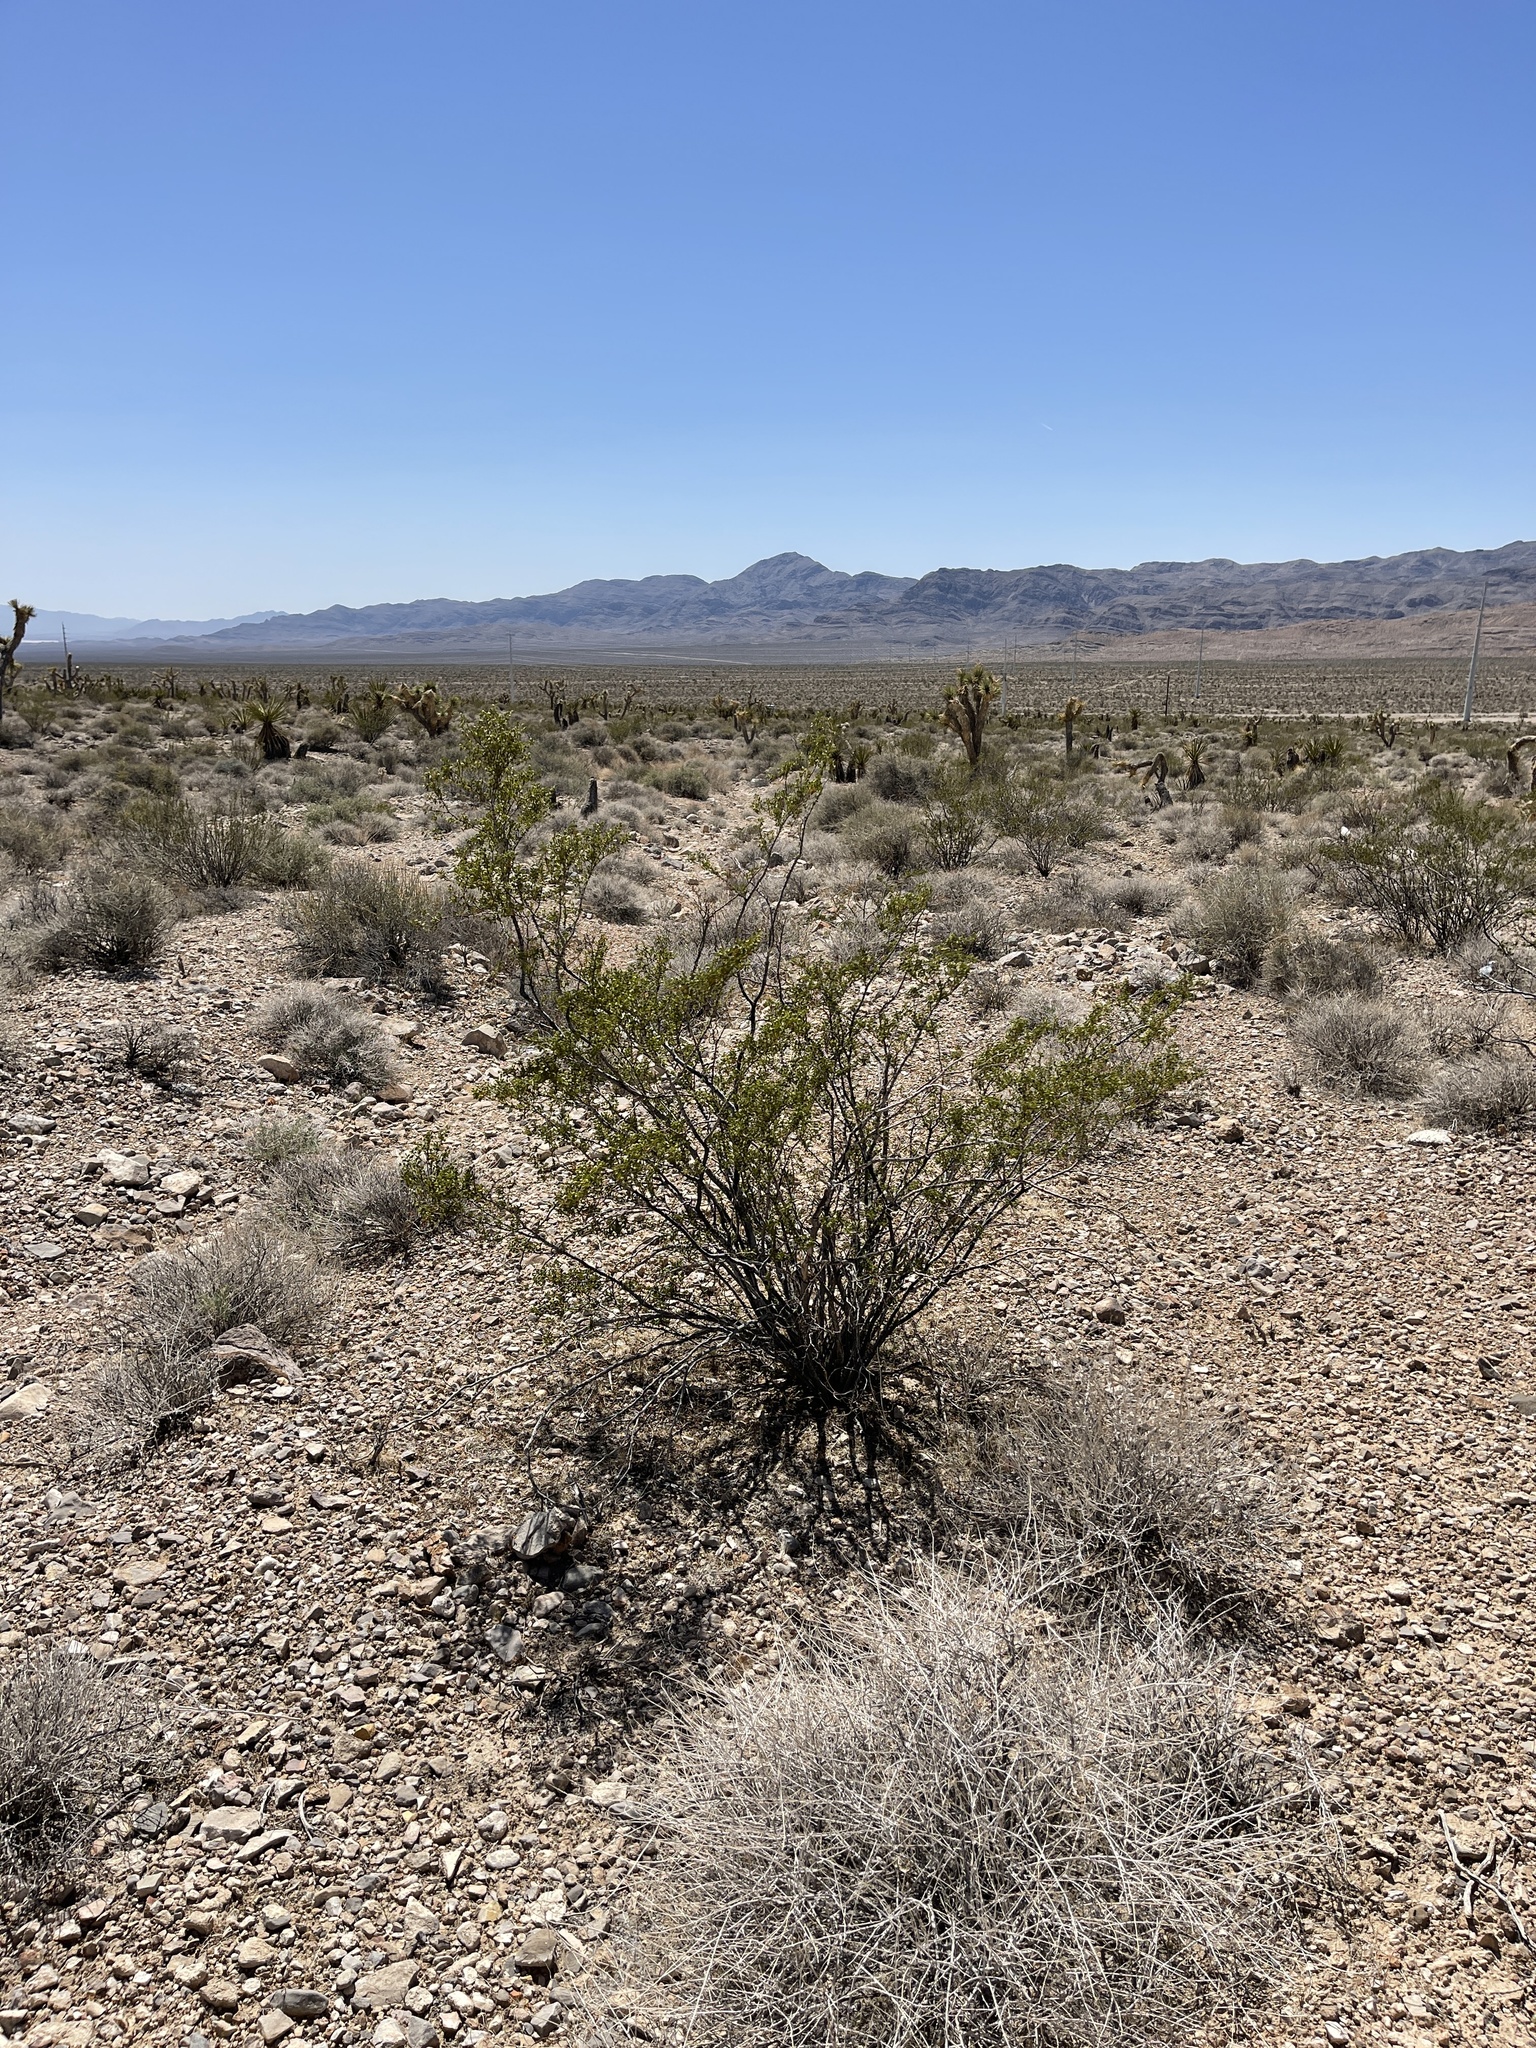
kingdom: Plantae
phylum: Tracheophyta
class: Magnoliopsida
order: Zygophyllales
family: Zygophyllaceae
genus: Larrea
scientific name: Larrea tridentata
